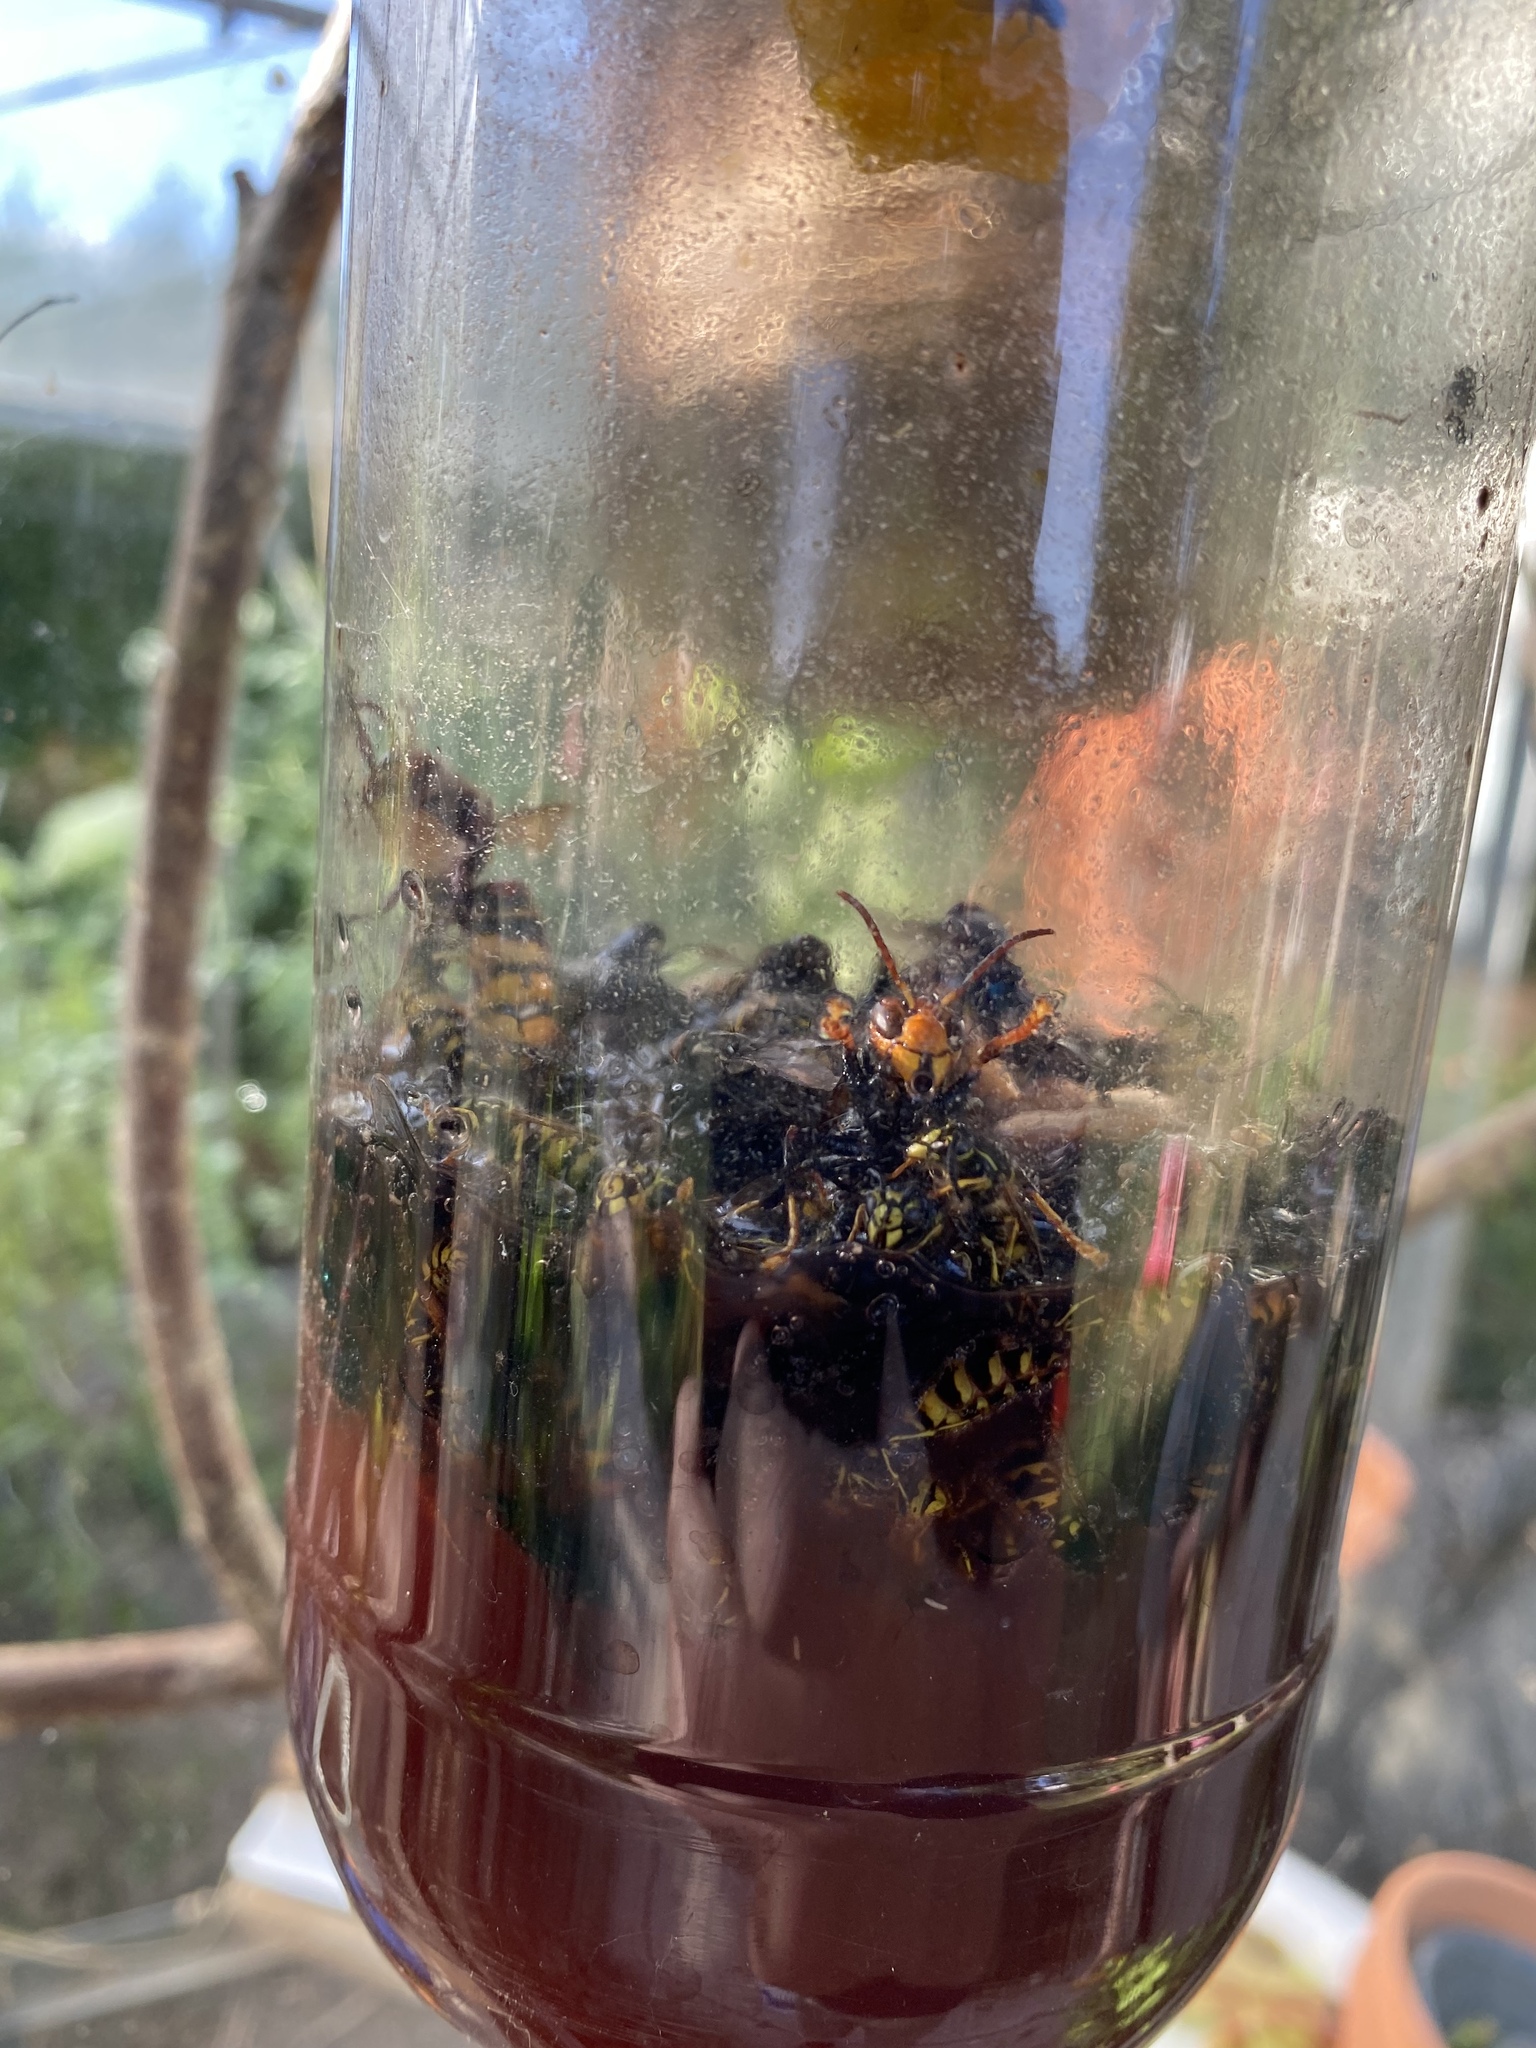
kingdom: Animalia
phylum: Arthropoda
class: Insecta
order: Hymenoptera
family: Vespidae
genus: Vespa
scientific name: Vespa velutina
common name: Asian hornet
